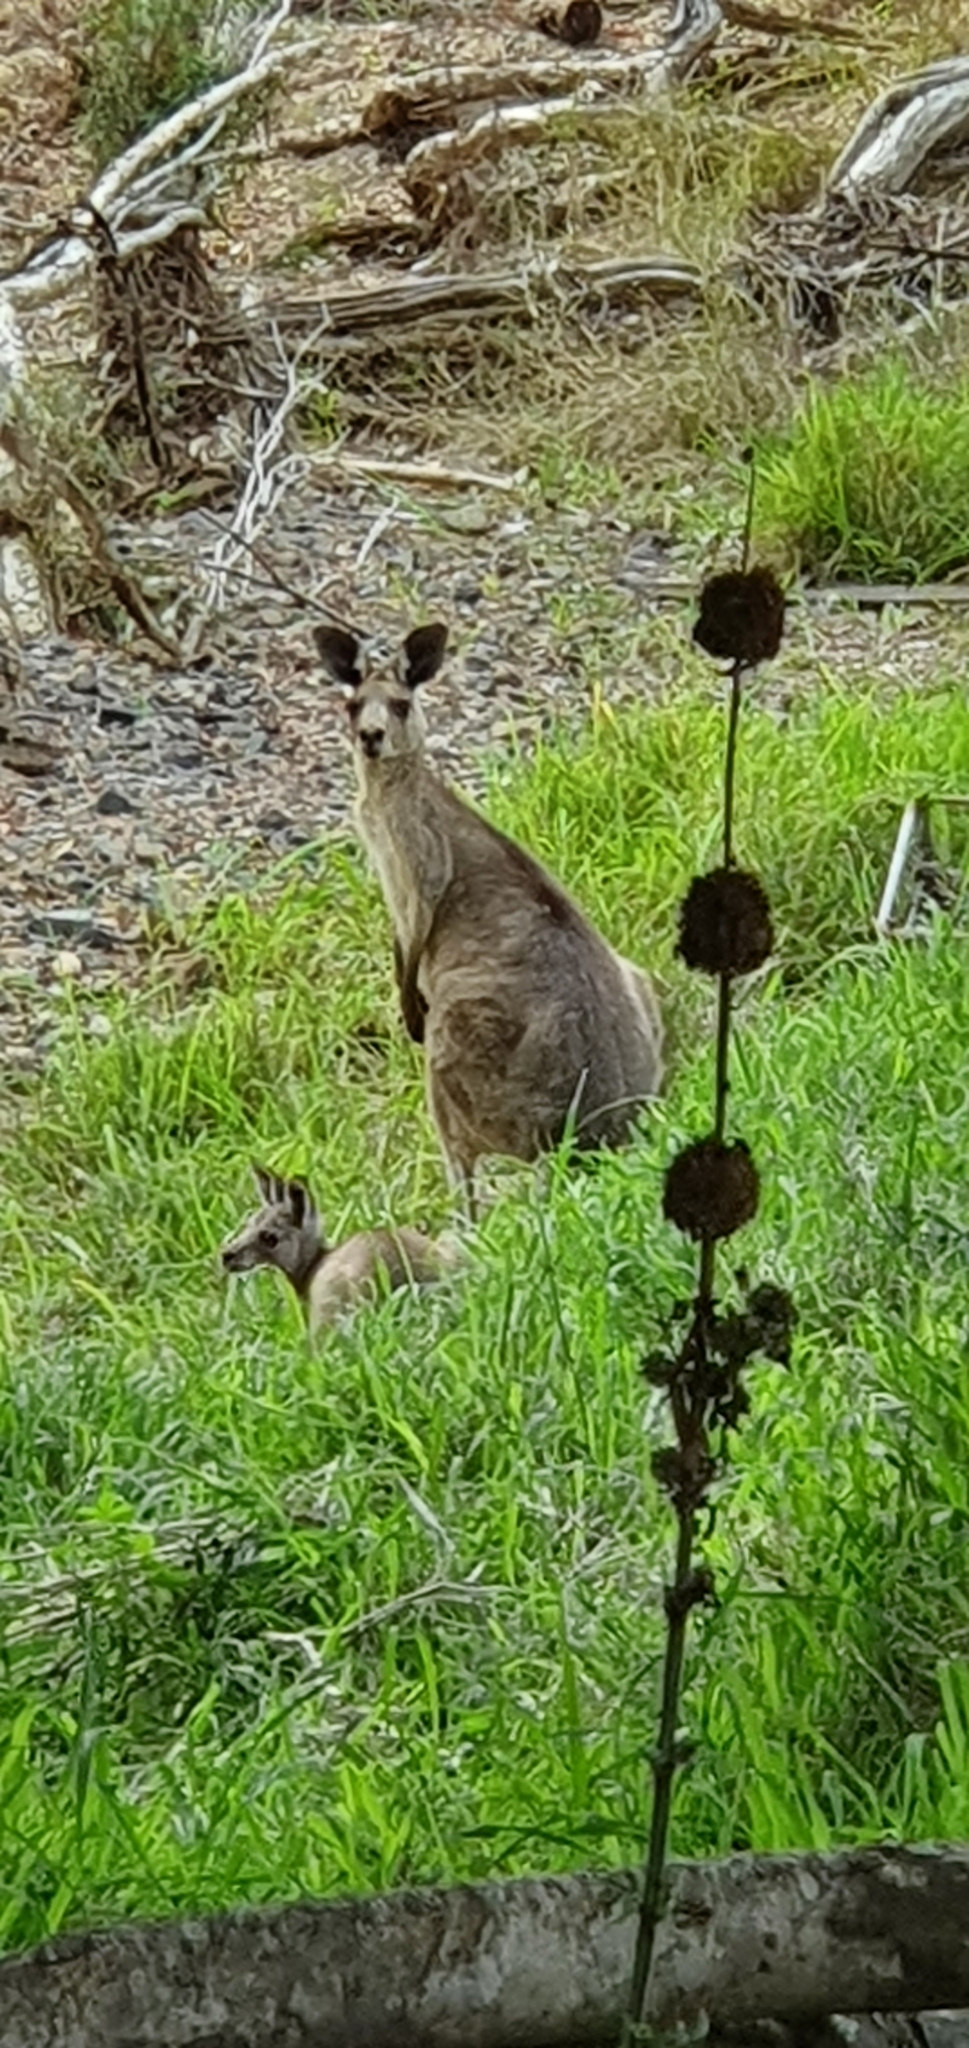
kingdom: Animalia
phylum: Chordata
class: Mammalia
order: Diprotodontia
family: Macropodidae
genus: Macropus
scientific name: Macropus giganteus
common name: Eastern grey kangaroo
